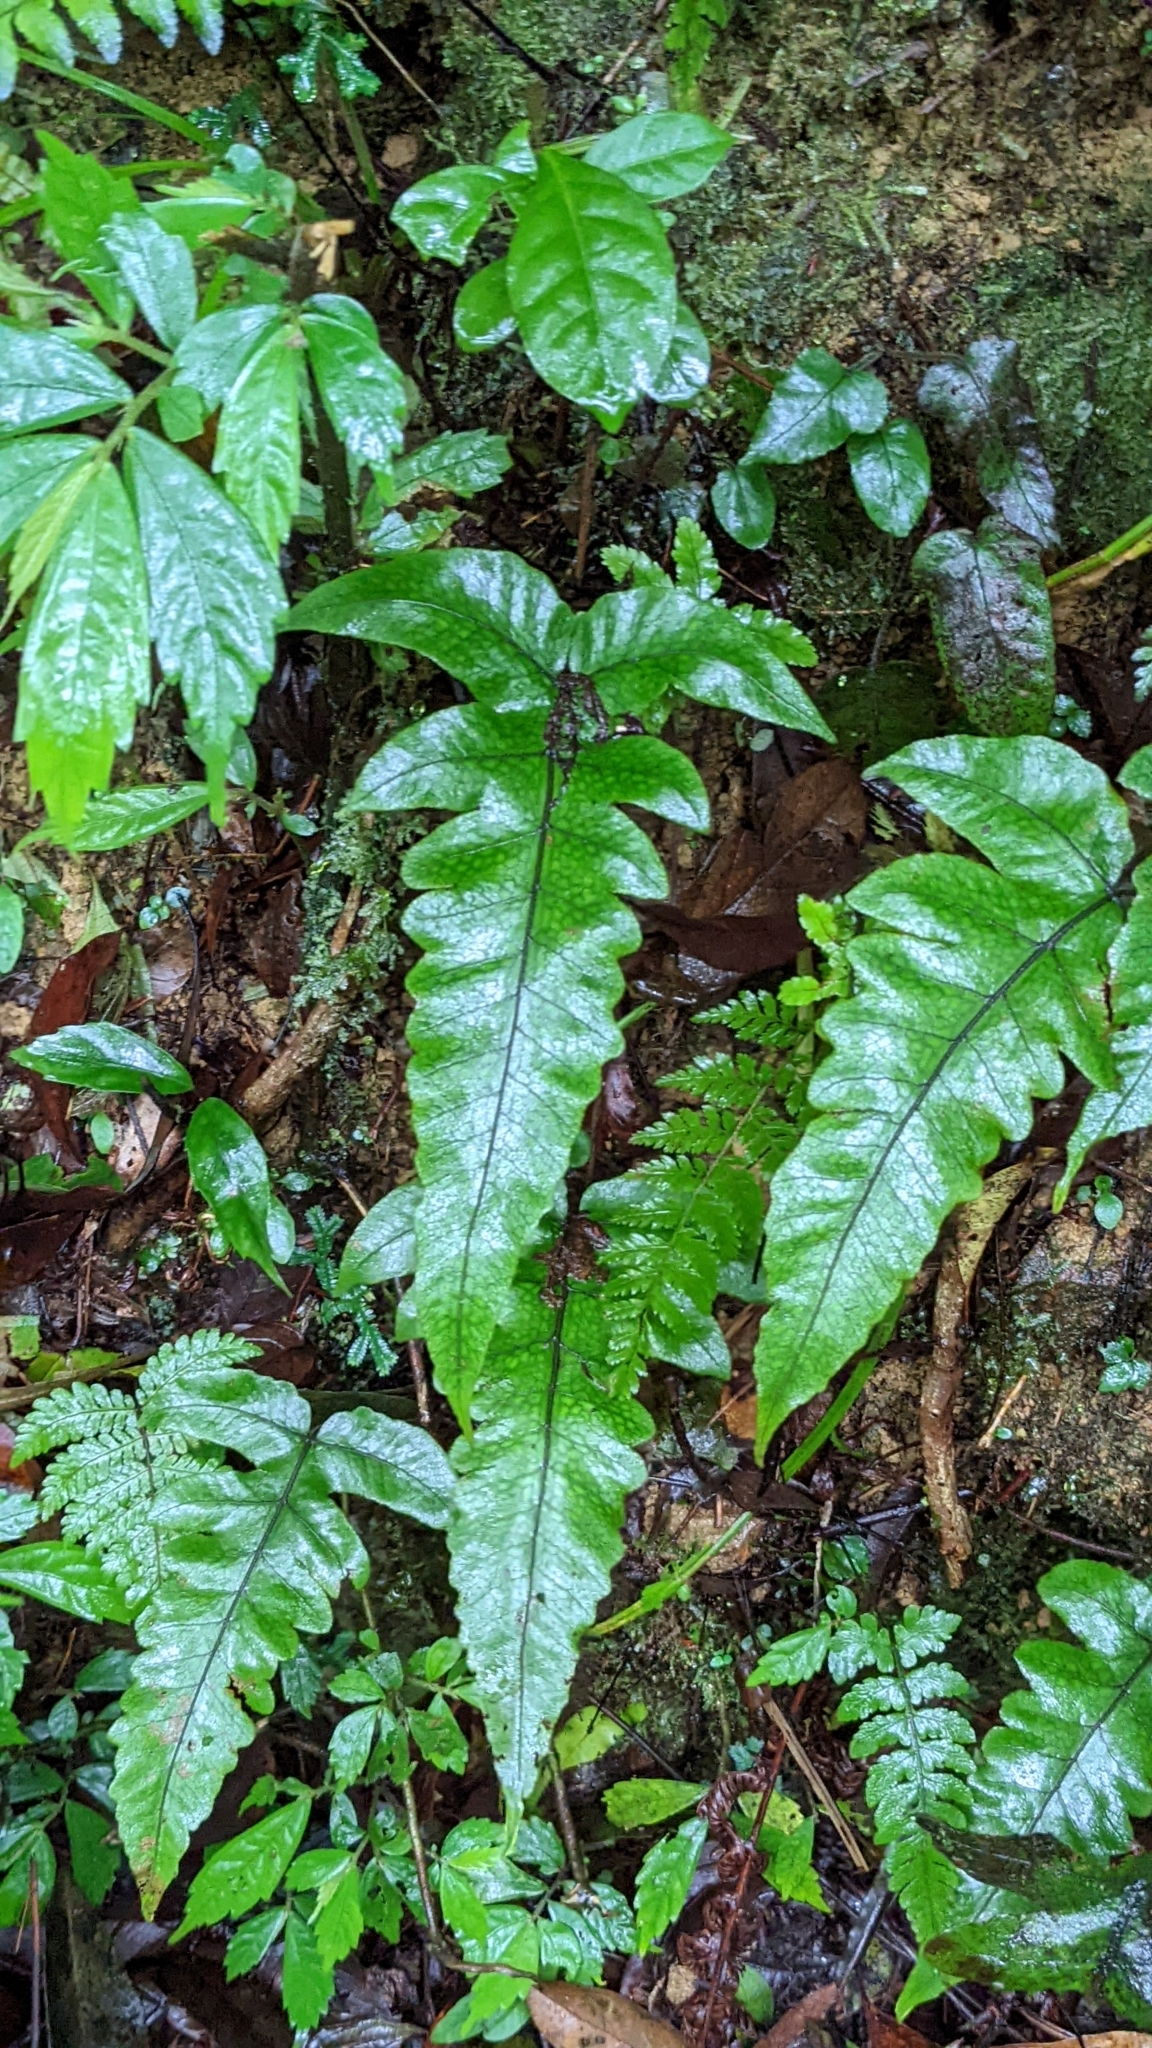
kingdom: Plantae
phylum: Tracheophyta
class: Polypodiopsida
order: Polypodiales
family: Thelypteridaceae
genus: Stegnogramma
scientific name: Stegnogramma wilfordii
